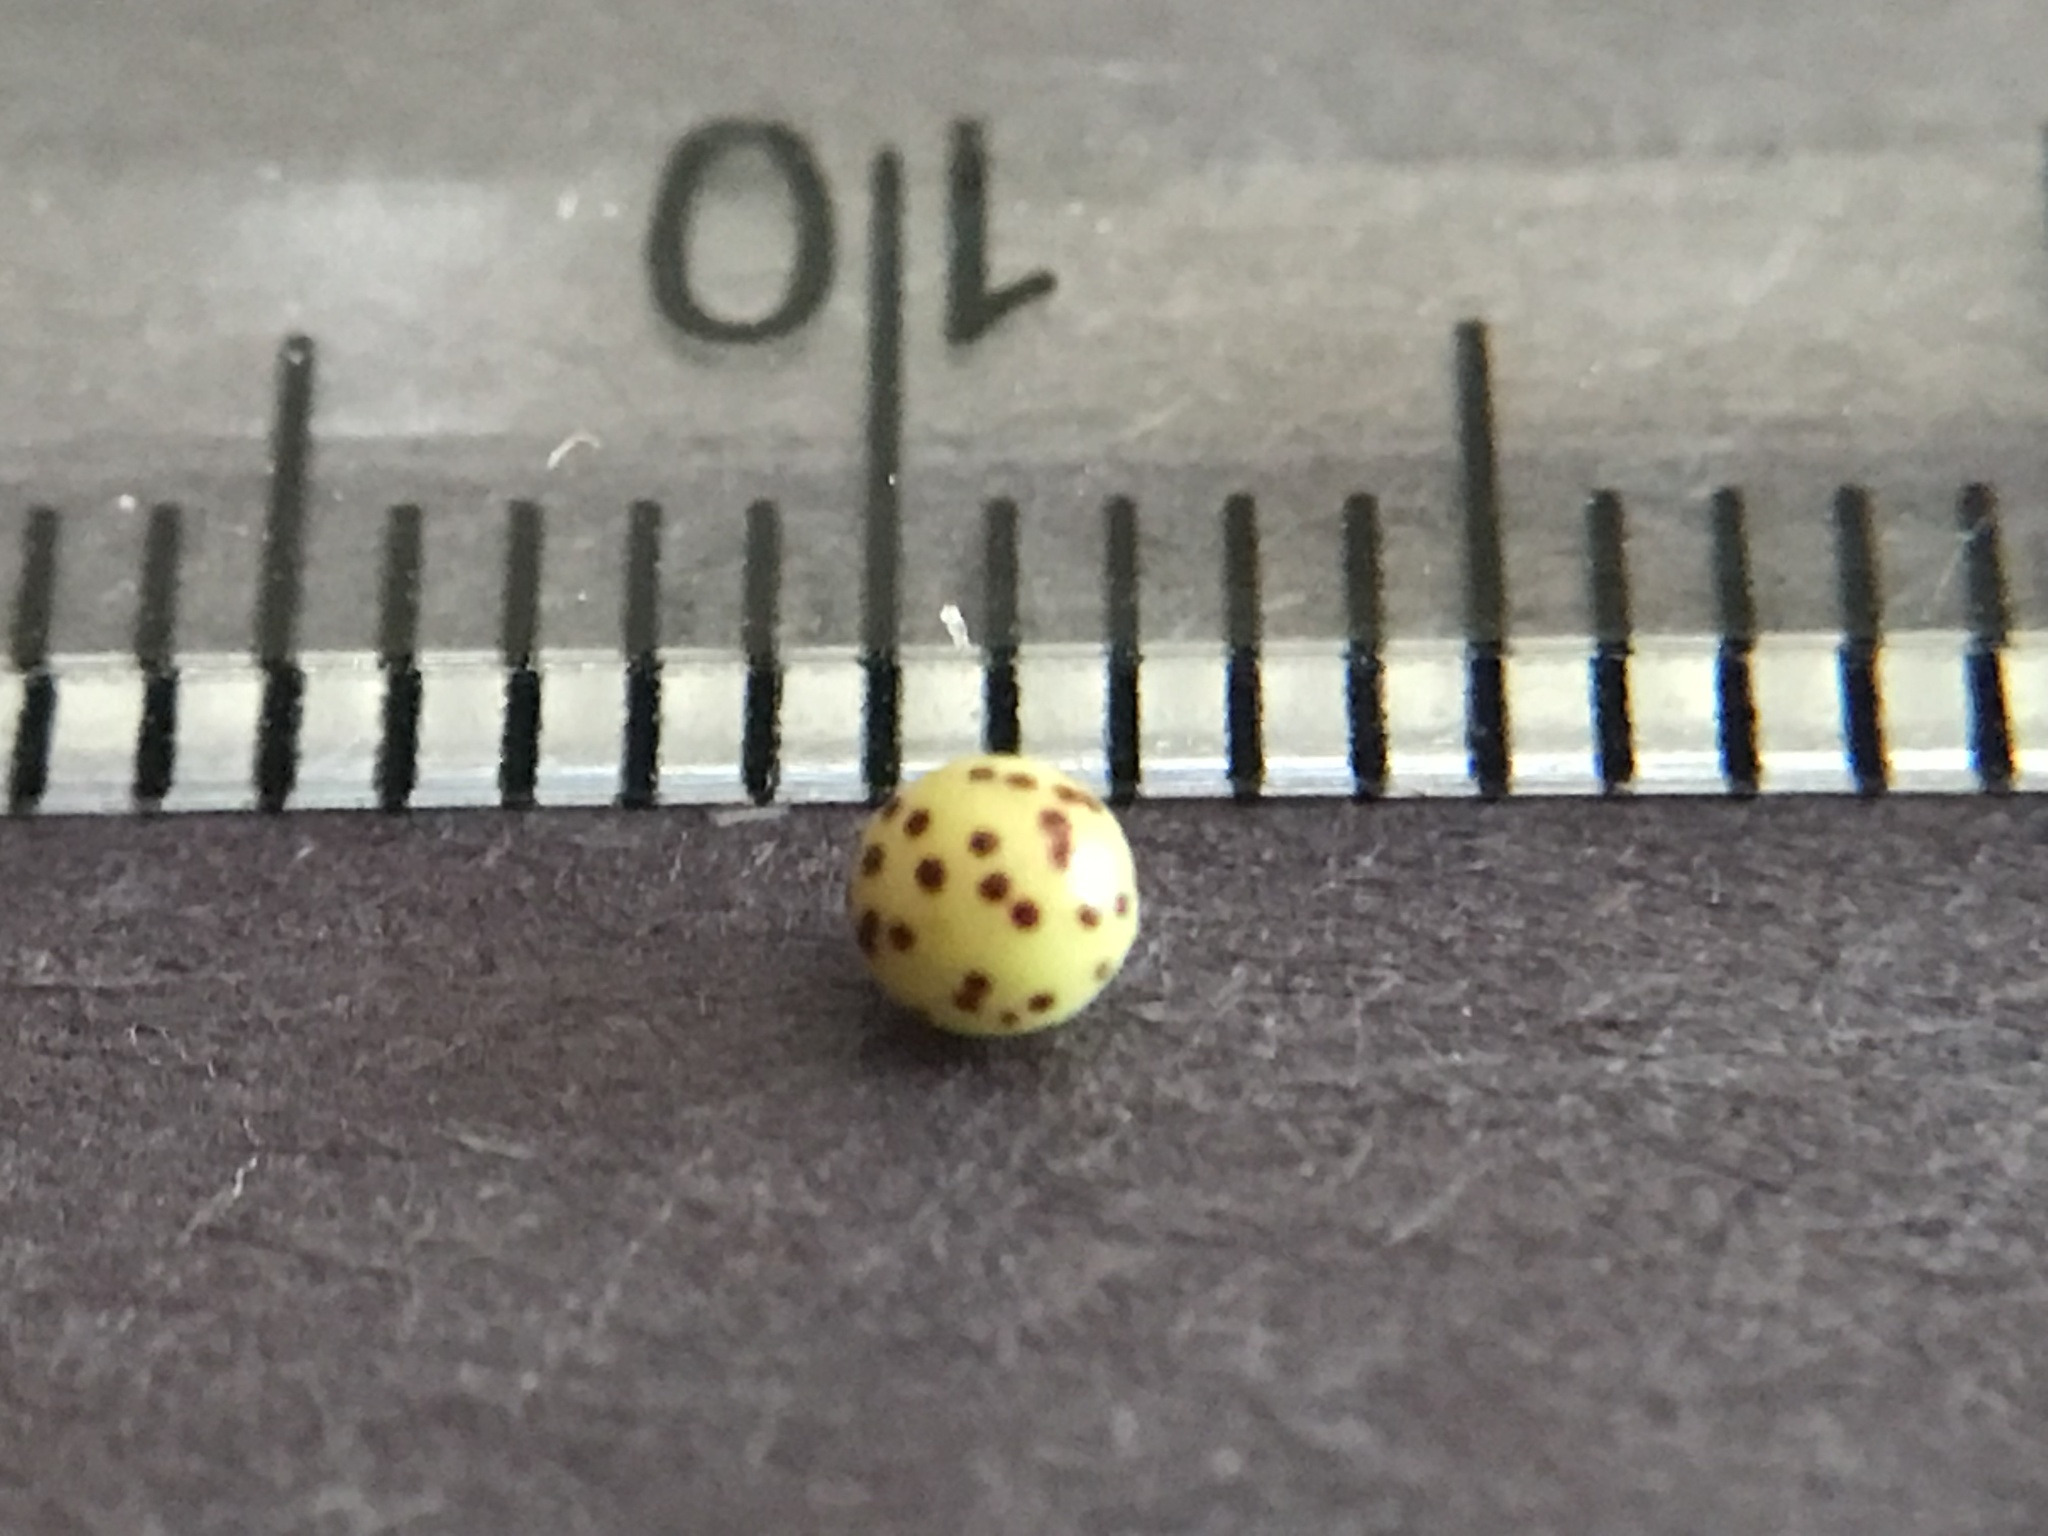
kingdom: Animalia
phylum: Arthropoda
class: Insecta
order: Hymenoptera
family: Cynipidae
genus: Zopheroteras
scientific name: Zopheroteras
